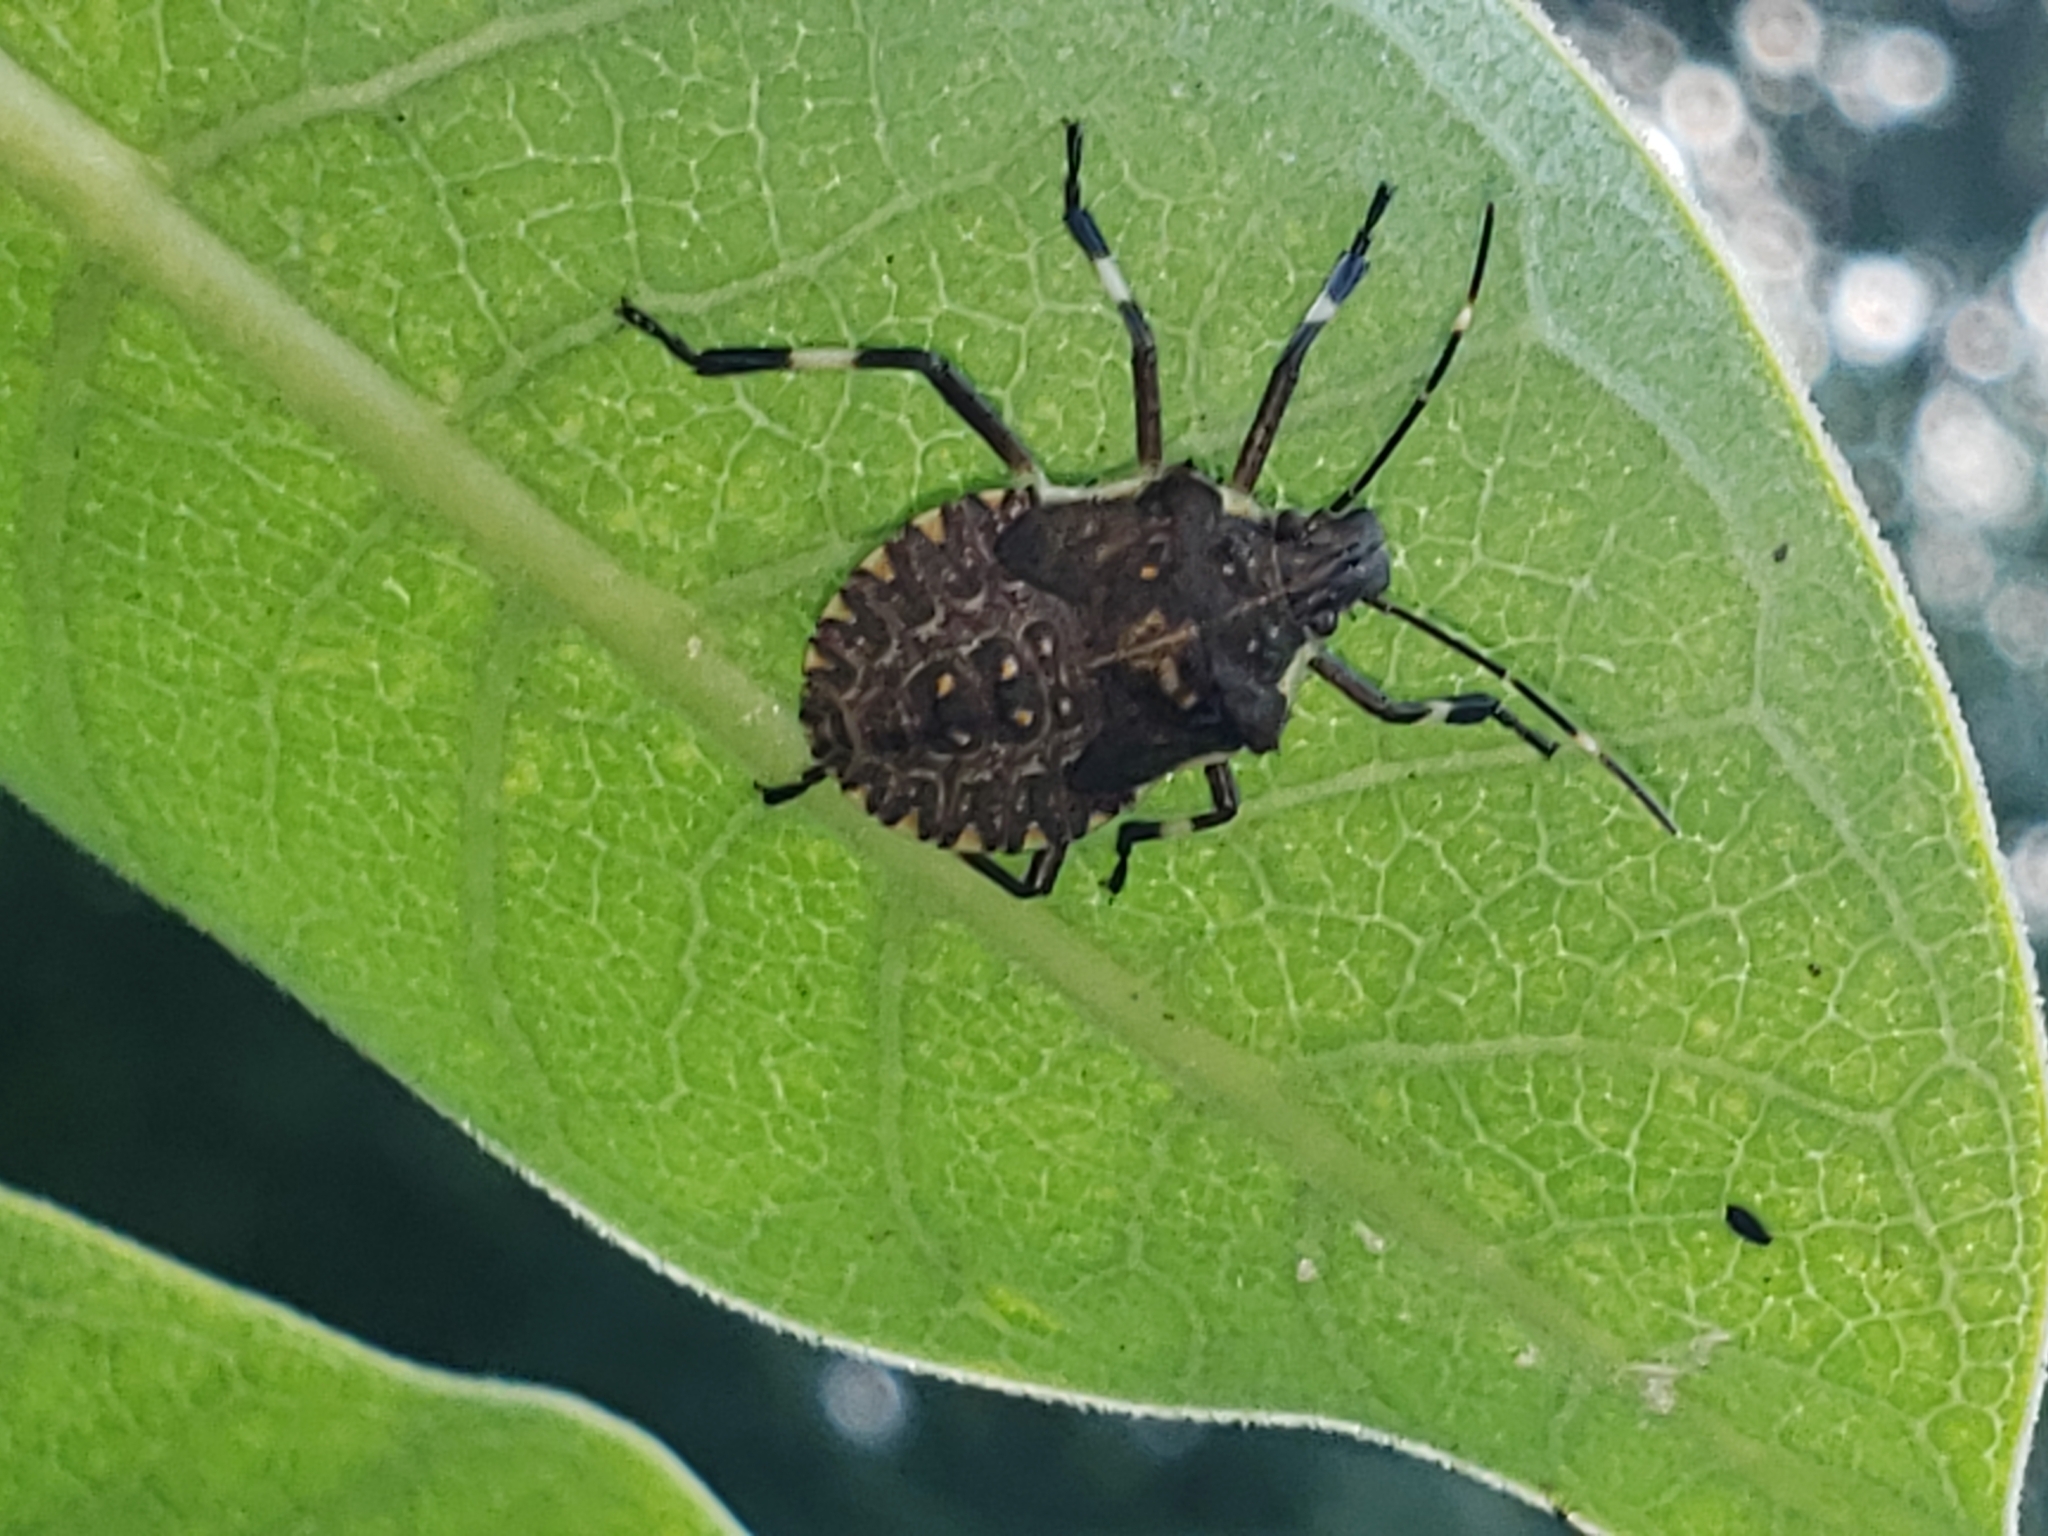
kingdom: Animalia
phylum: Arthropoda
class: Insecta
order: Hemiptera
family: Pentatomidae
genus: Halyomorpha
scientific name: Halyomorpha halys
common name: Brown marmorated stink bug
